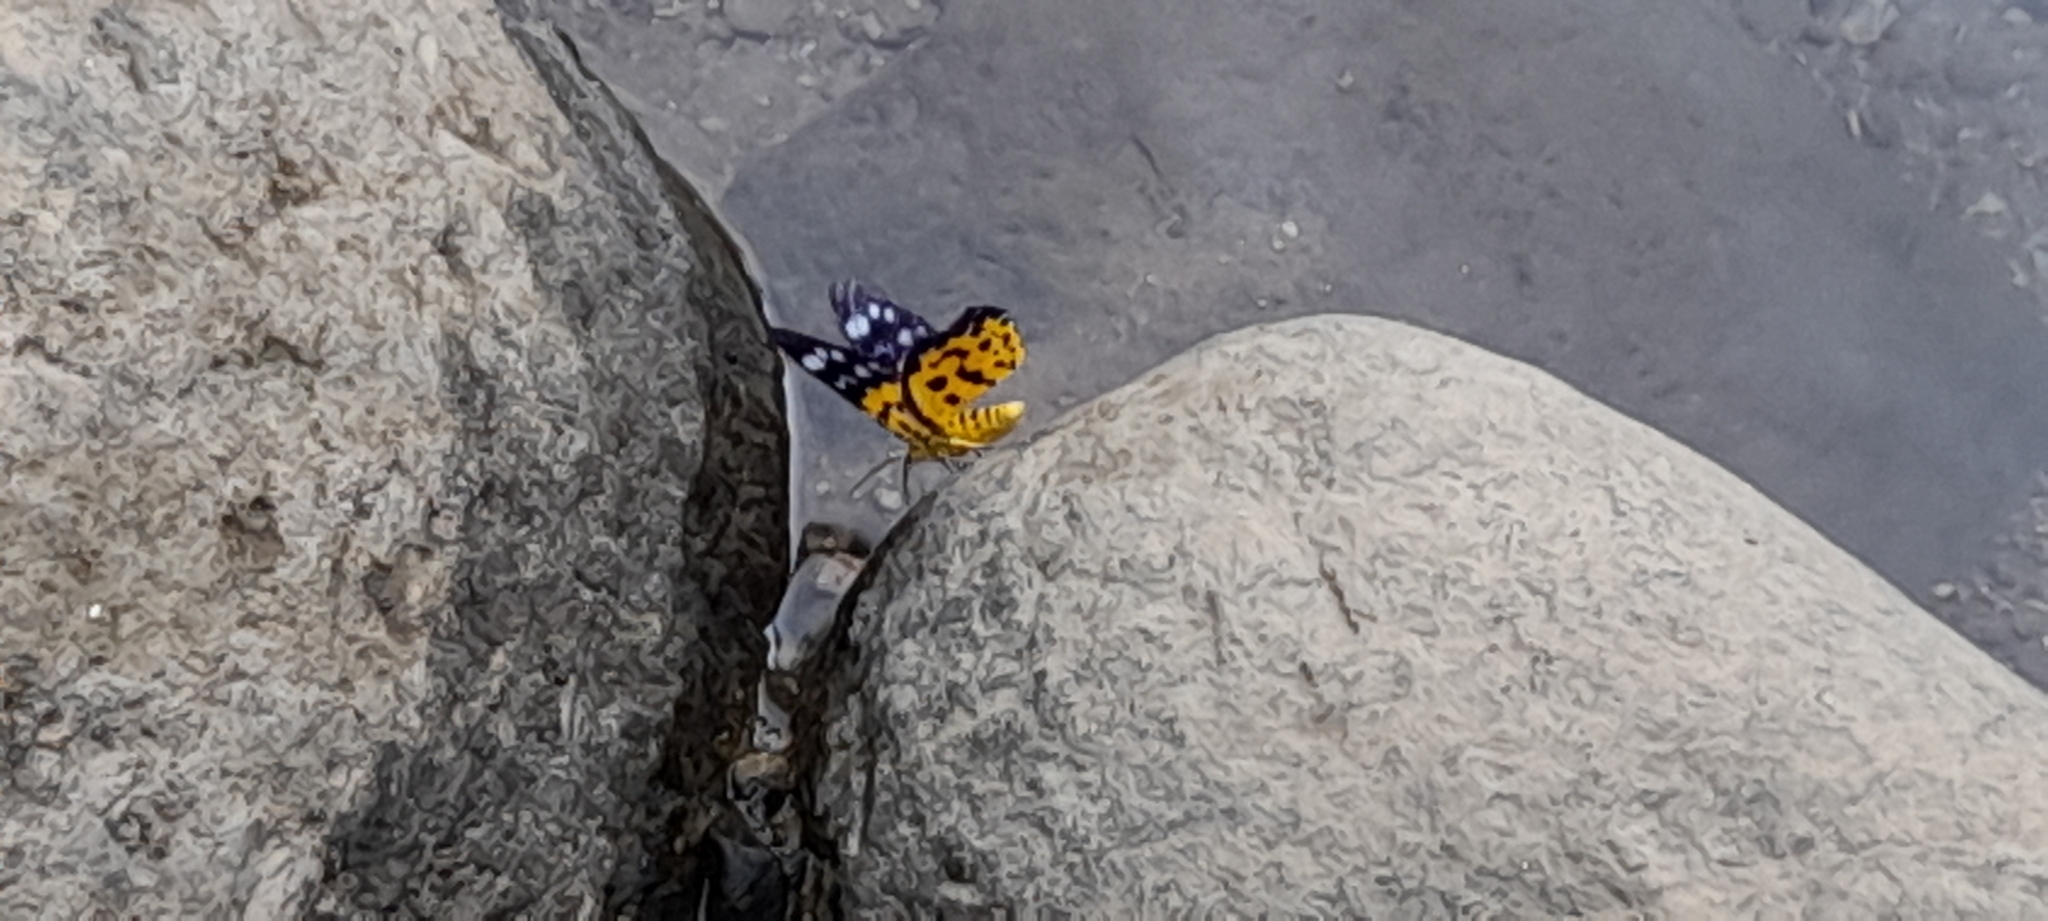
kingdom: Animalia
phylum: Arthropoda
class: Insecta
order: Lepidoptera
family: Geometridae
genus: Dysphania
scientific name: Dysphania militaris
